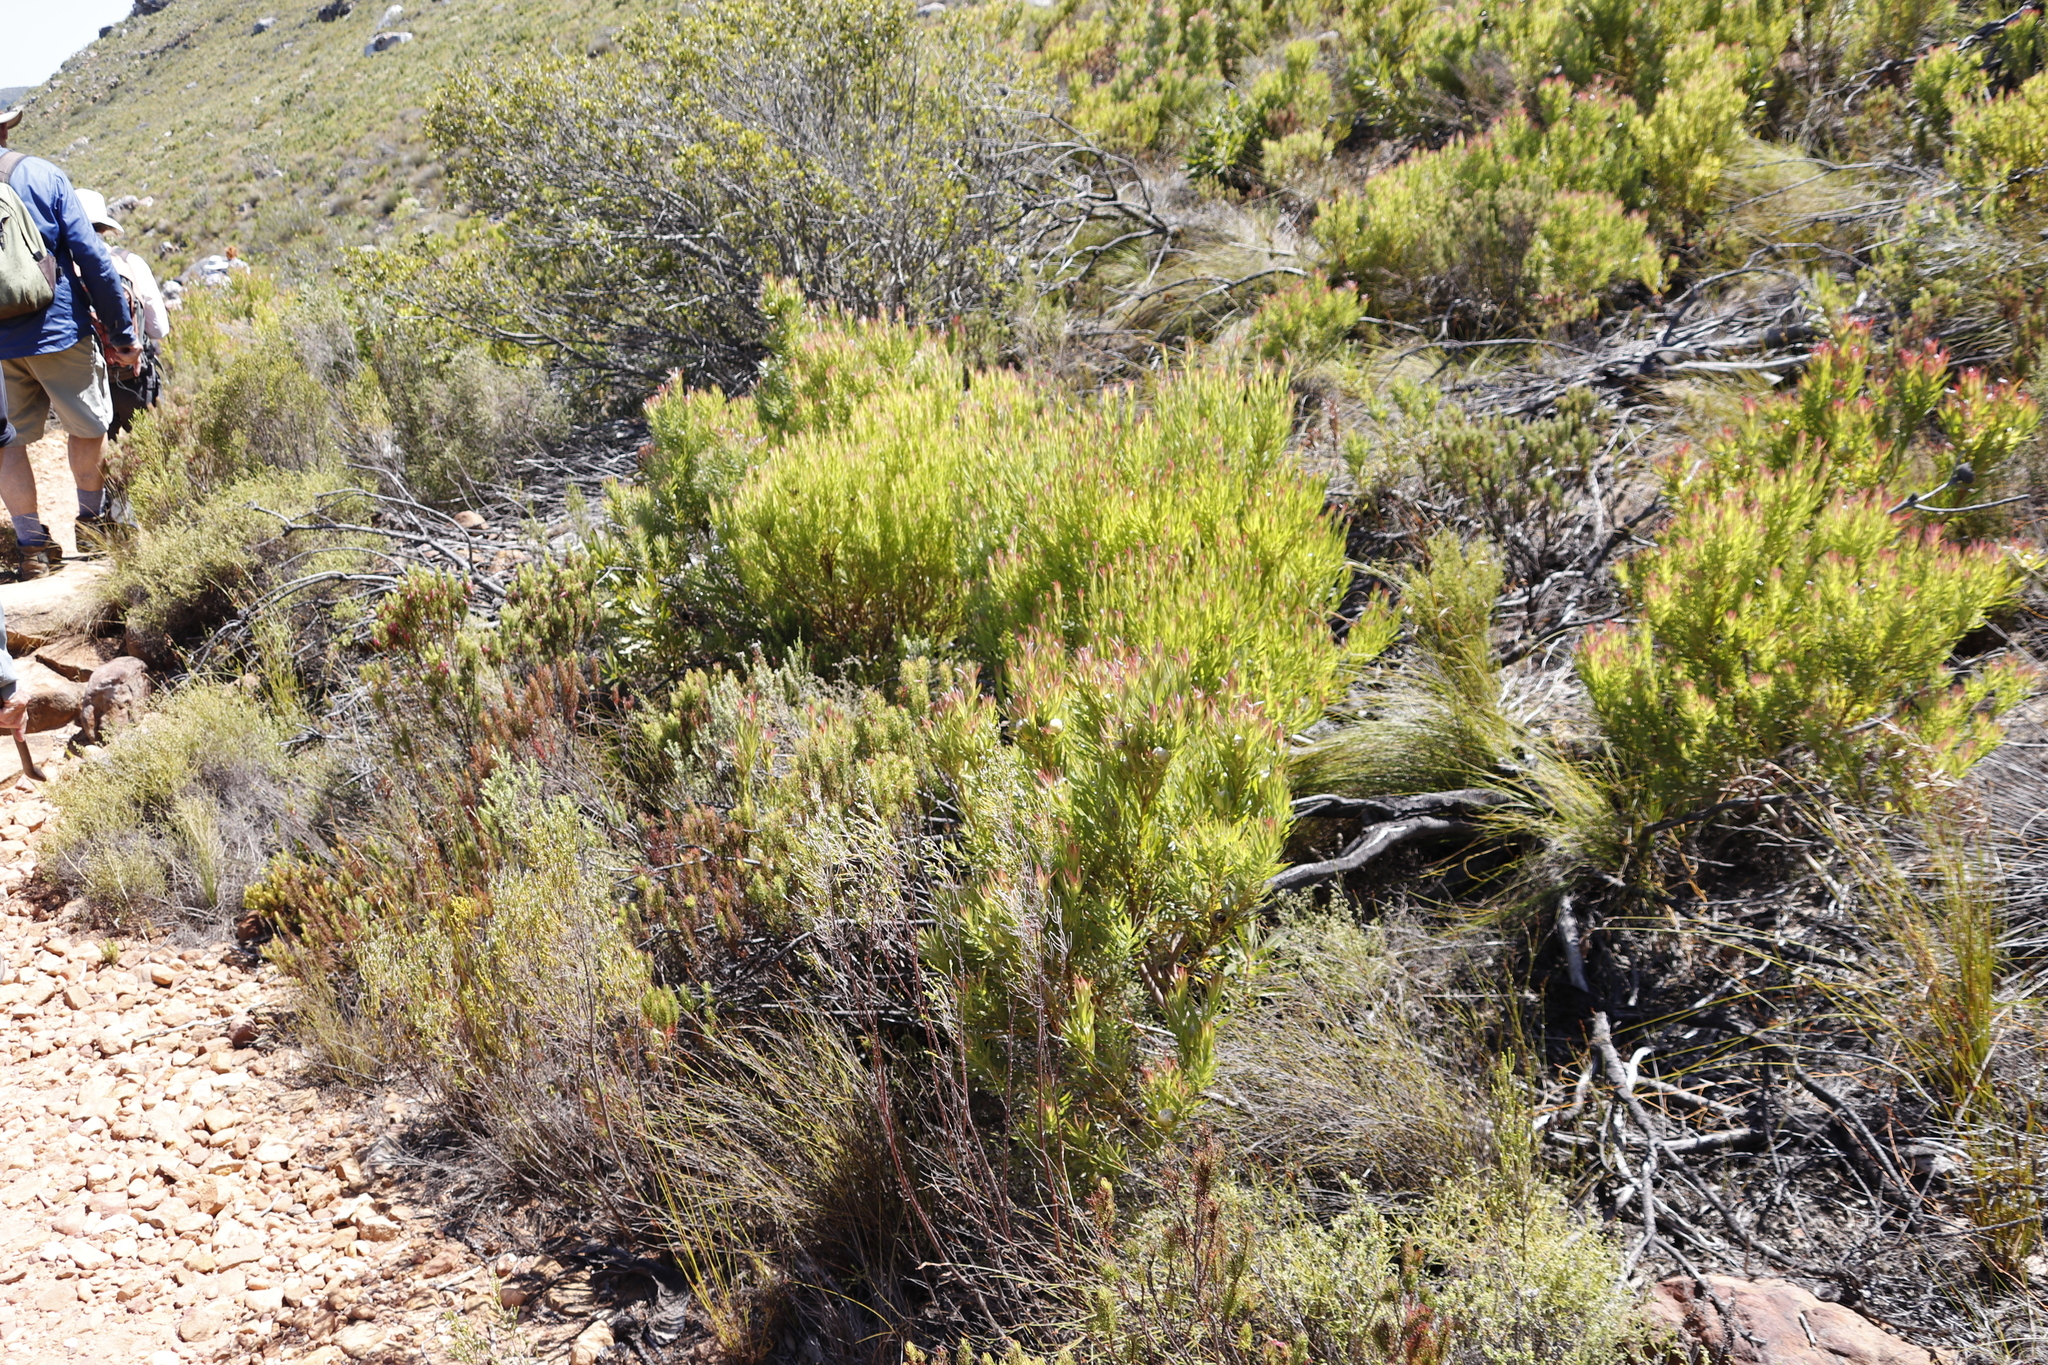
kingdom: Plantae
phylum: Tracheophyta
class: Magnoliopsida
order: Proteales
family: Proteaceae
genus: Leucadendron
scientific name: Leucadendron xanthoconus
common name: Sickle-leaf conebush
